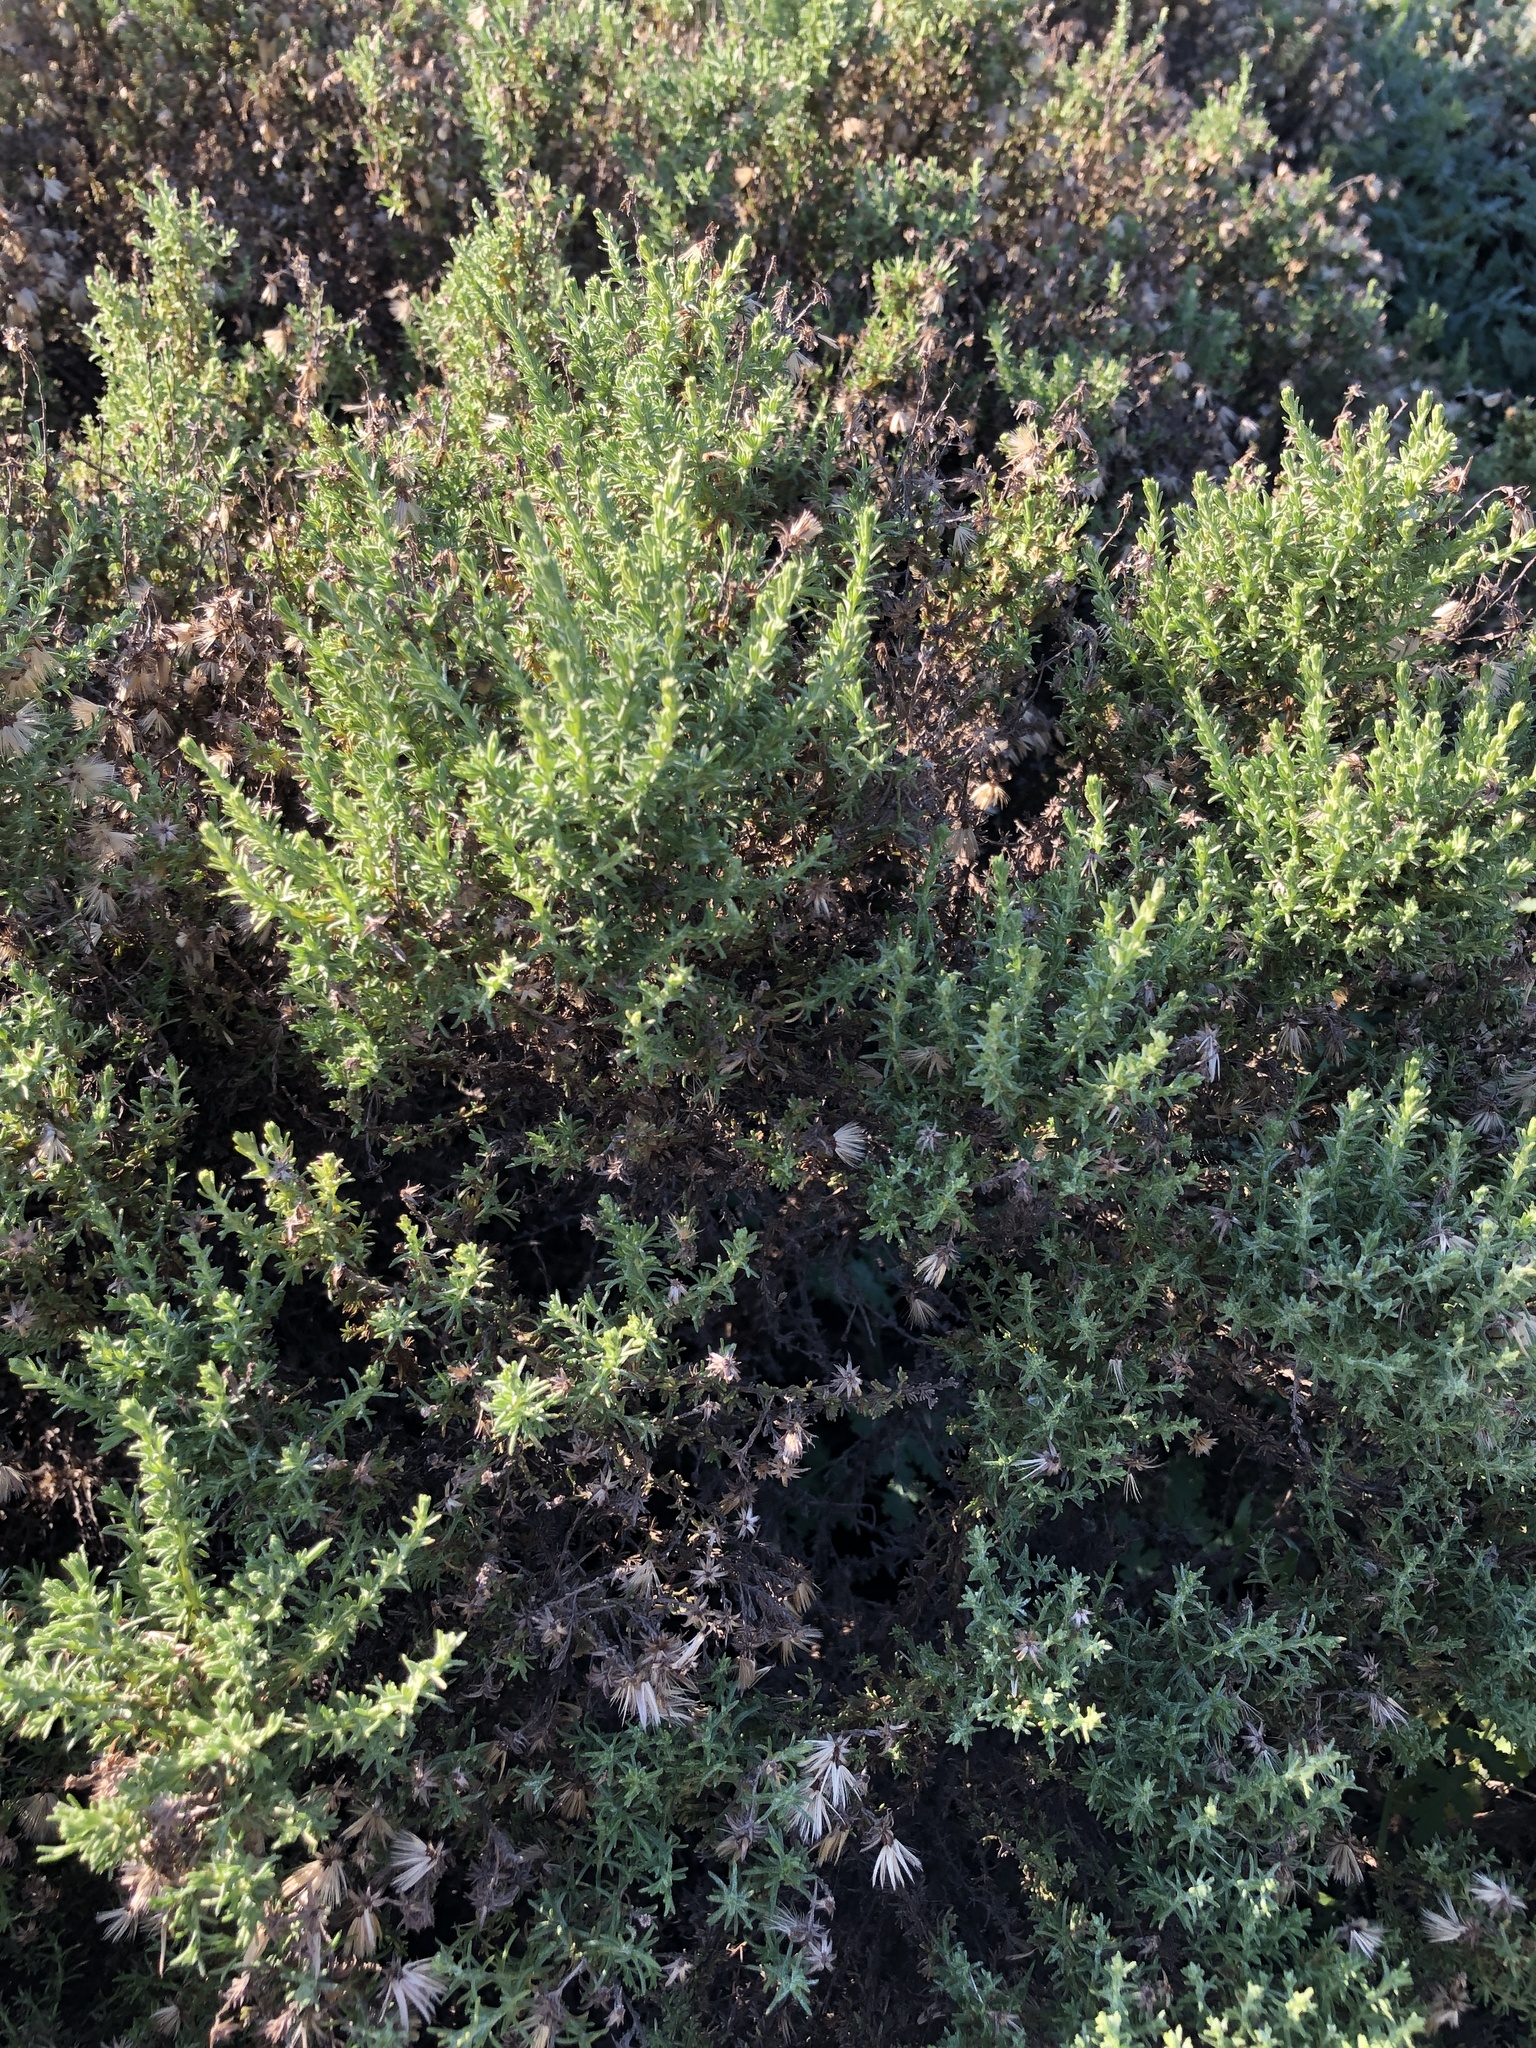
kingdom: Plantae
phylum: Tracheophyta
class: Magnoliopsida
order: Asterales
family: Asteraceae
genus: Ericameria
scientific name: Ericameria ericoides
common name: California goldenbush
